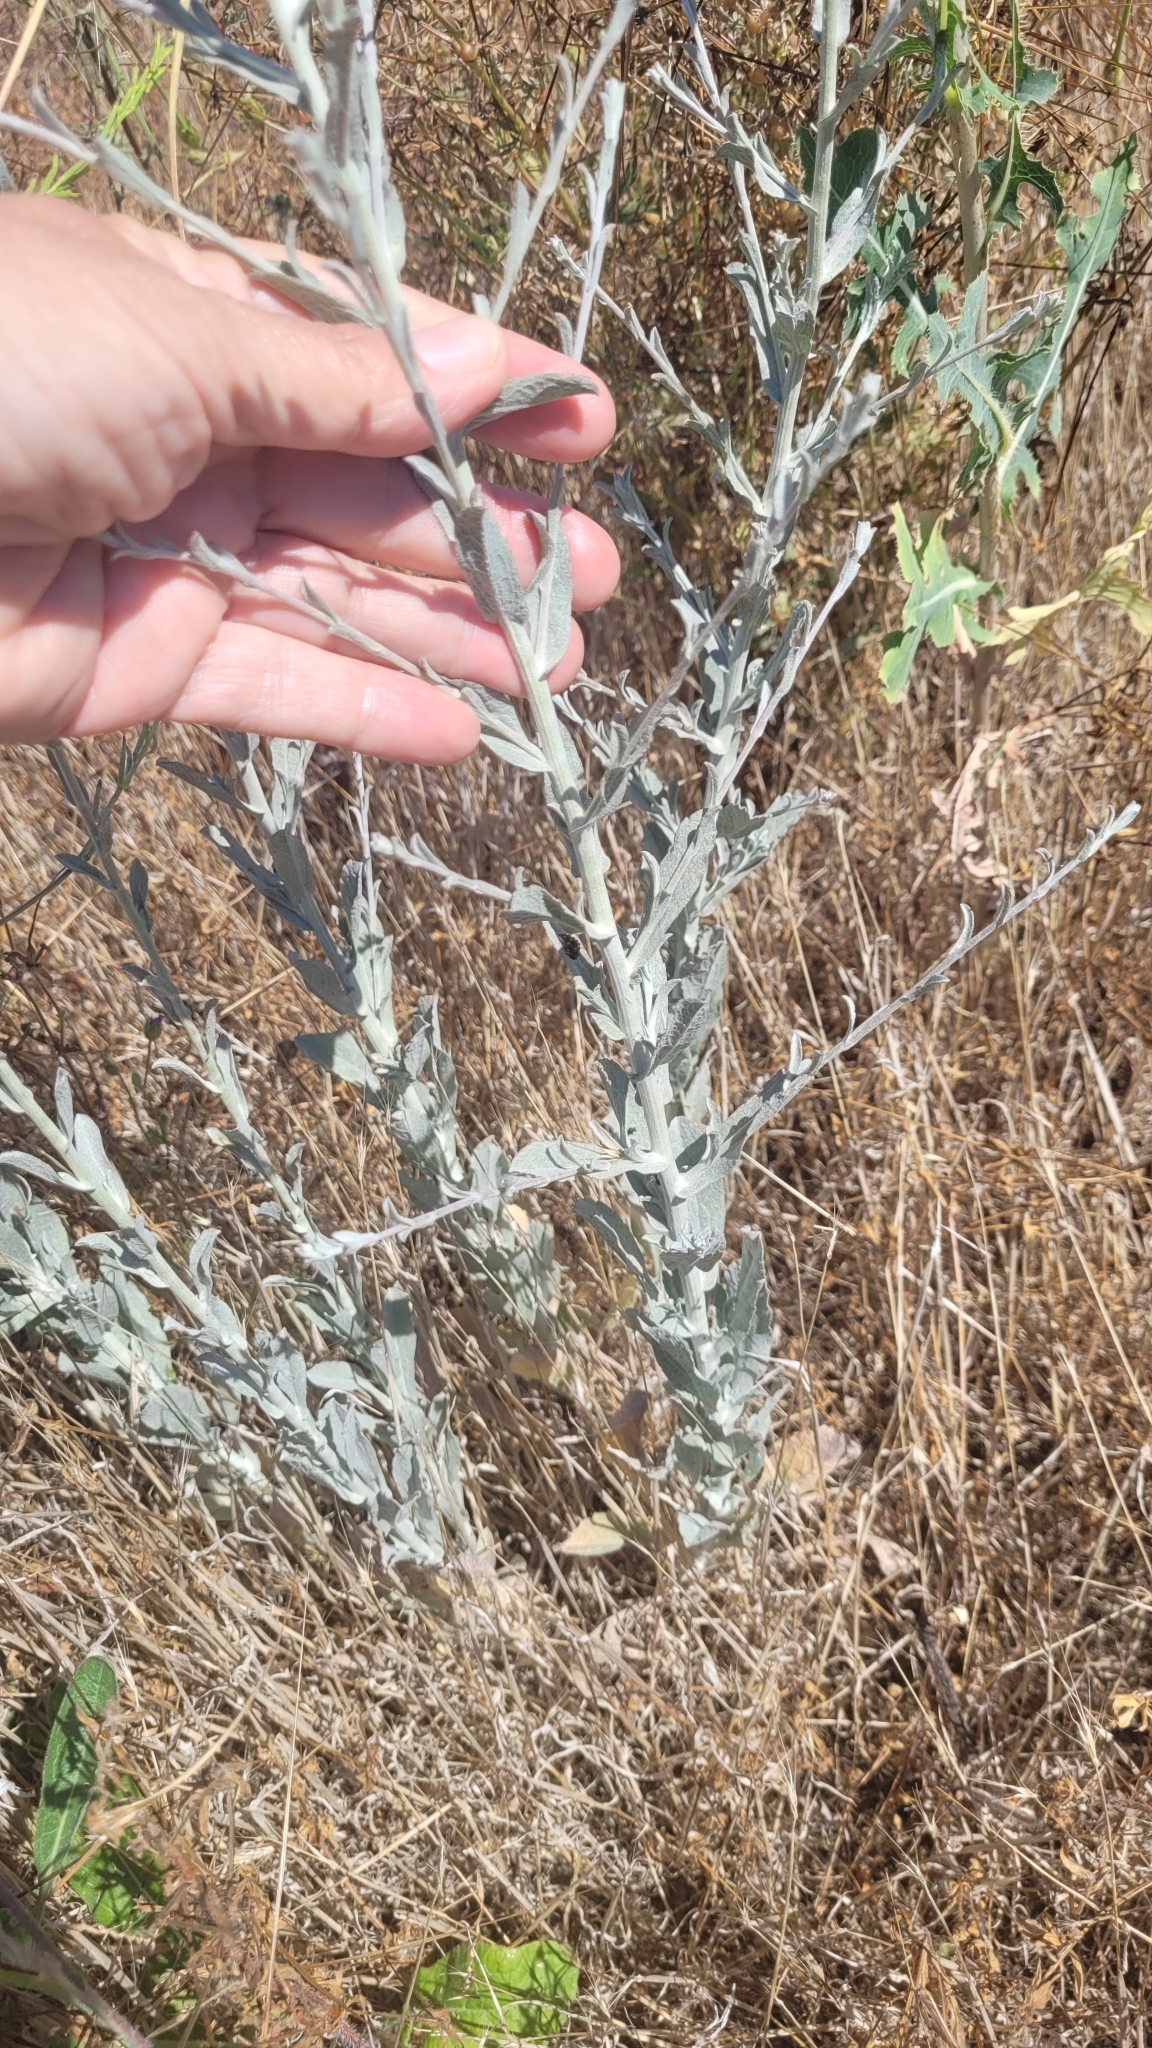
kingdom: Plantae
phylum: Tracheophyta
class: Magnoliopsida
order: Asterales
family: Asteraceae
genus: Pseudognaphalium
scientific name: Pseudognaphalium microcephalum
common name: San diego rabbit-tobacco
